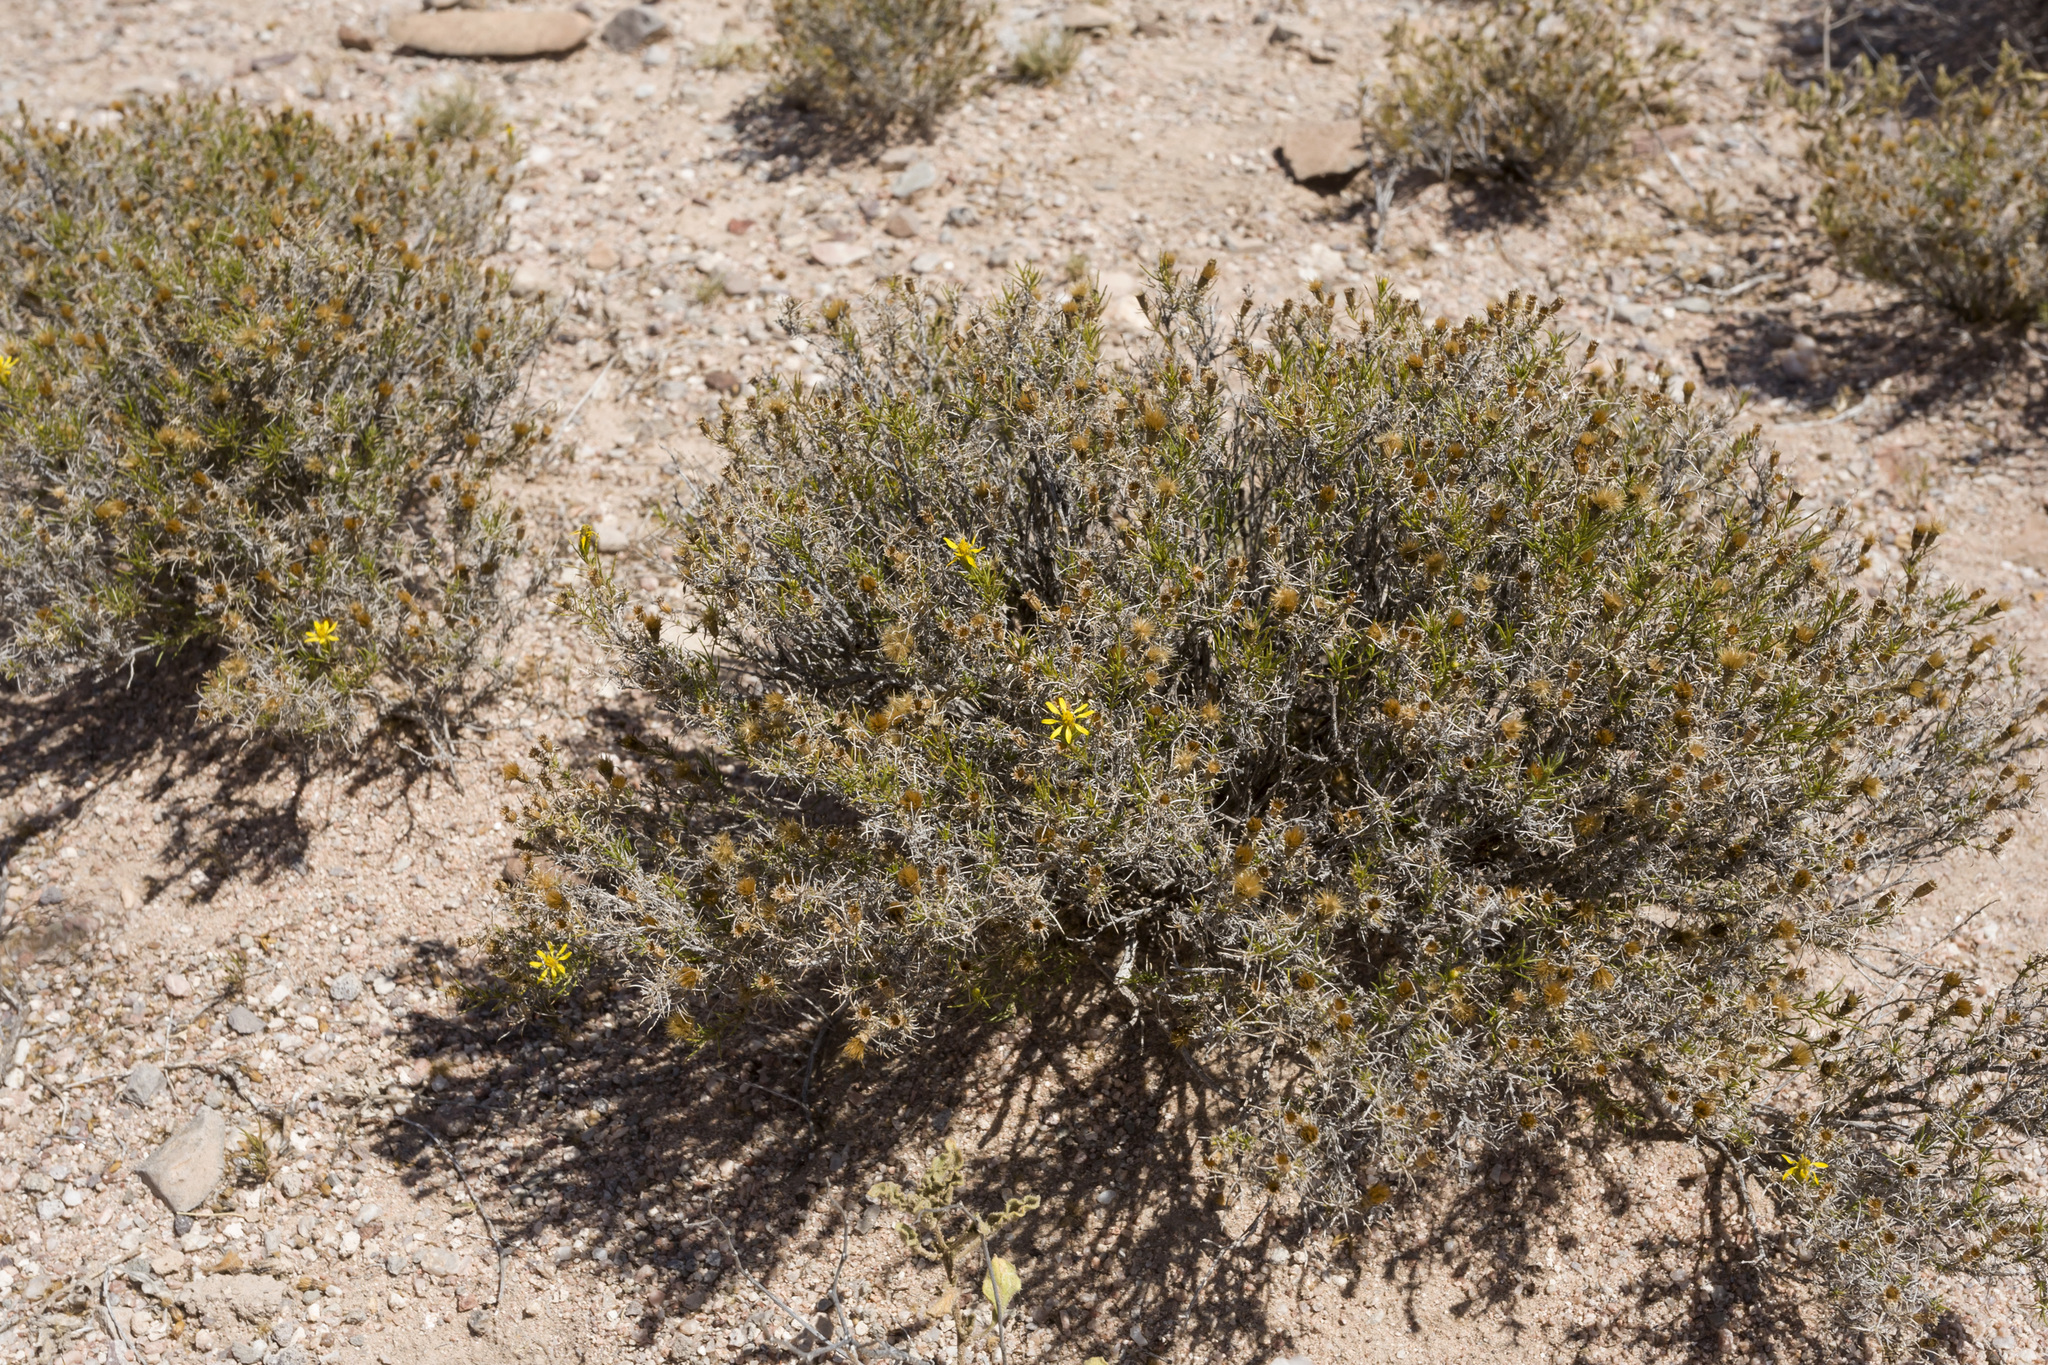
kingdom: Plantae
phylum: Tracheophyta
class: Magnoliopsida
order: Asterales
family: Asteraceae
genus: Thymophylla
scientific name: Thymophylla acerosa
